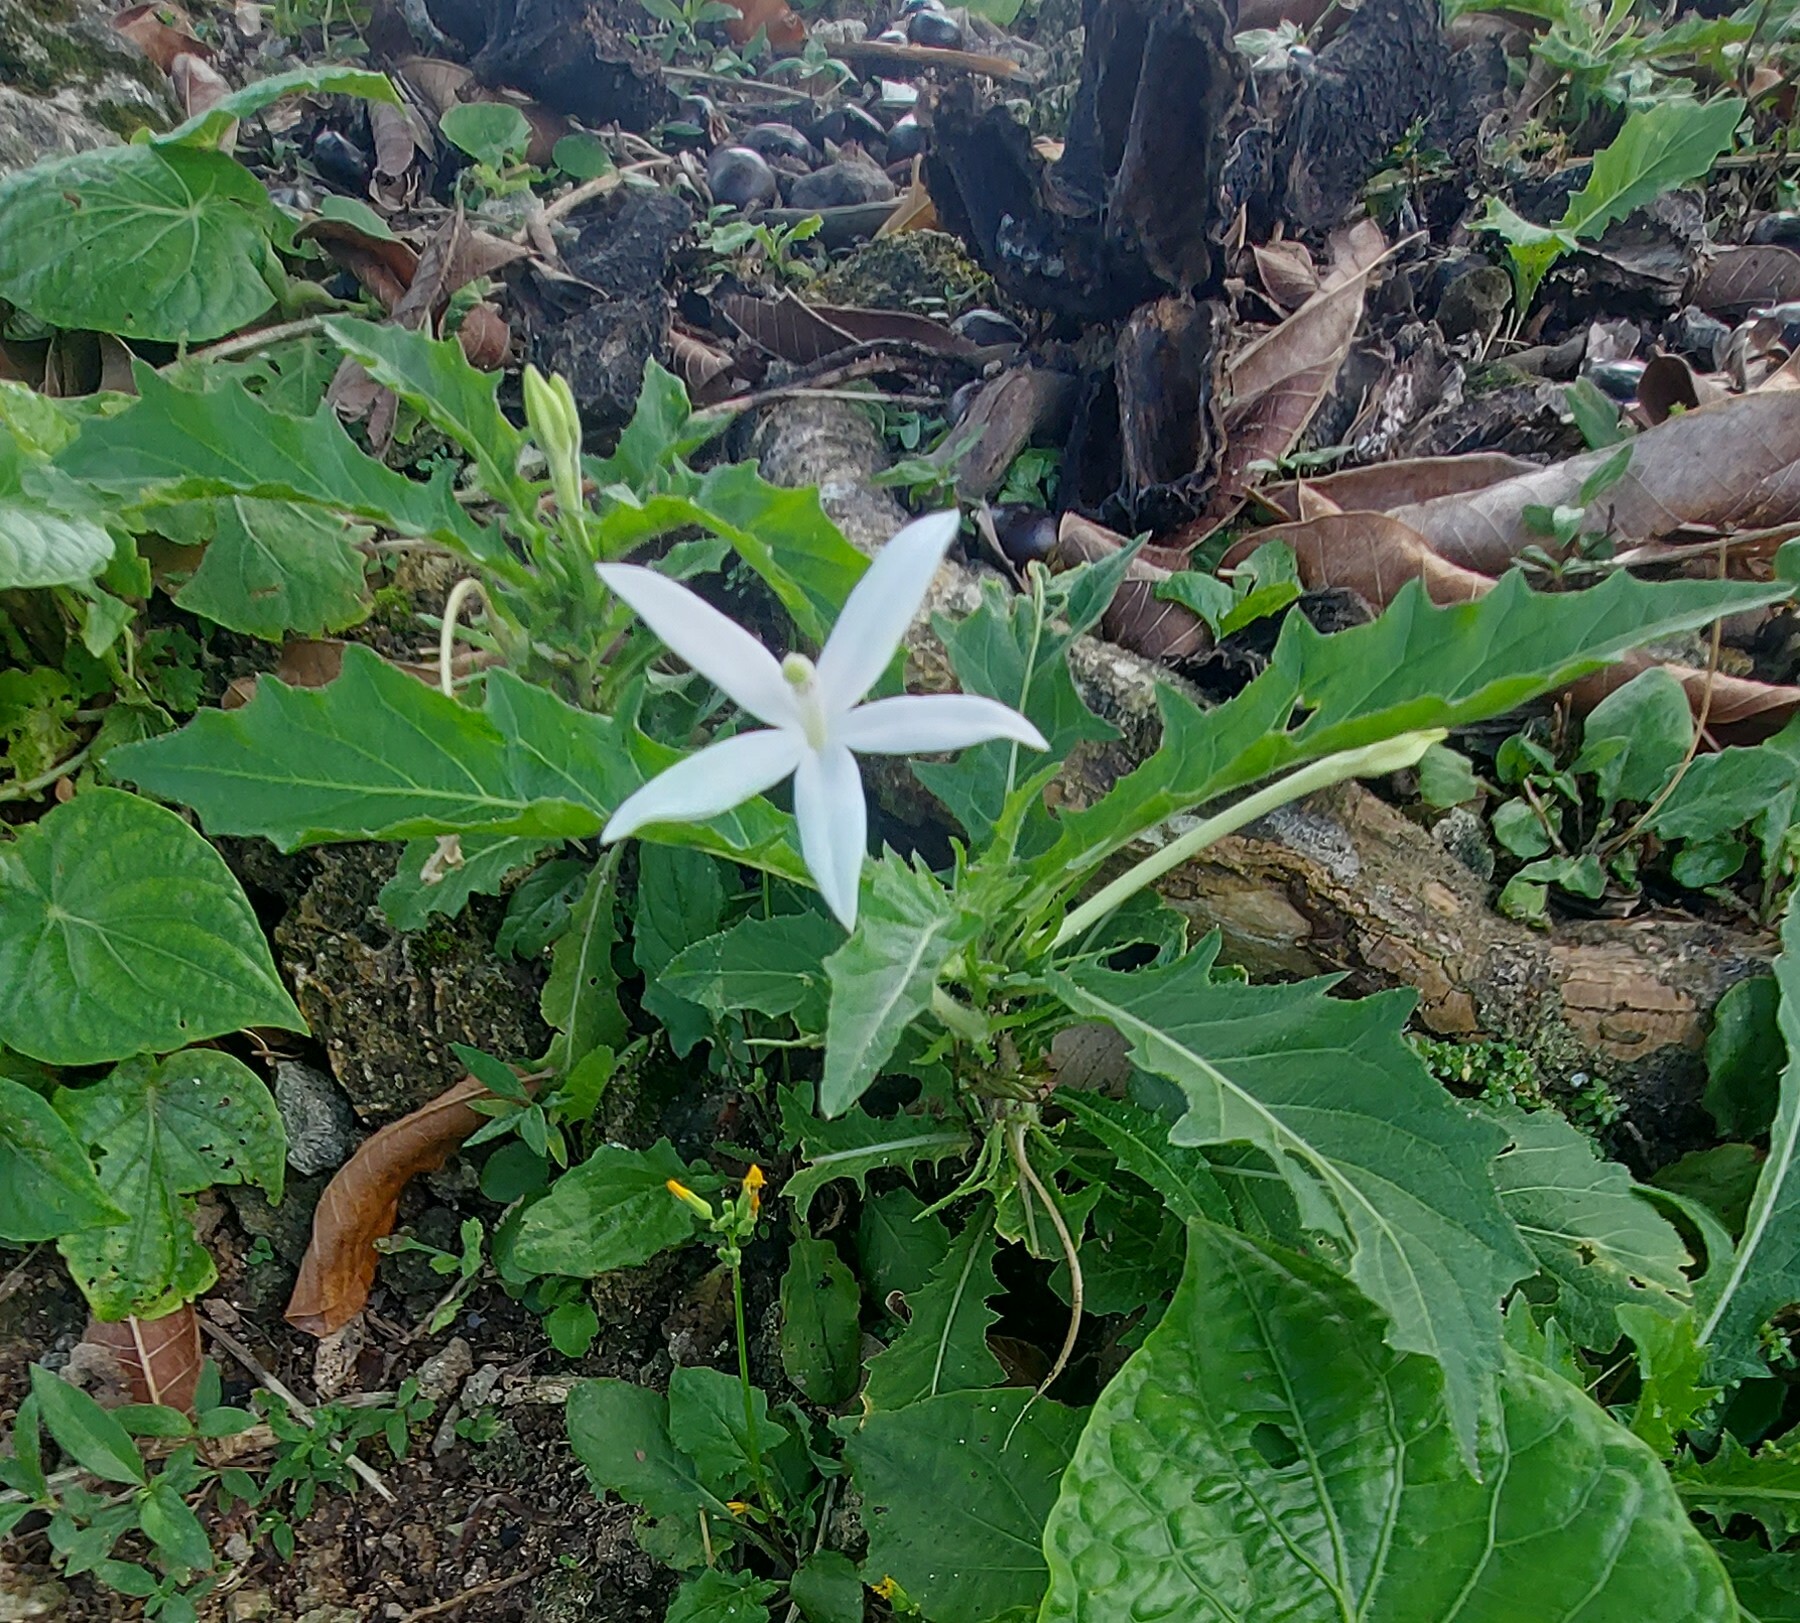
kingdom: Plantae
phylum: Tracheophyta
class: Magnoliopsida
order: Asterales
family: Campanulaceae
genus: Hippobroma
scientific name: Hippobroma longiflora
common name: Madamfate
